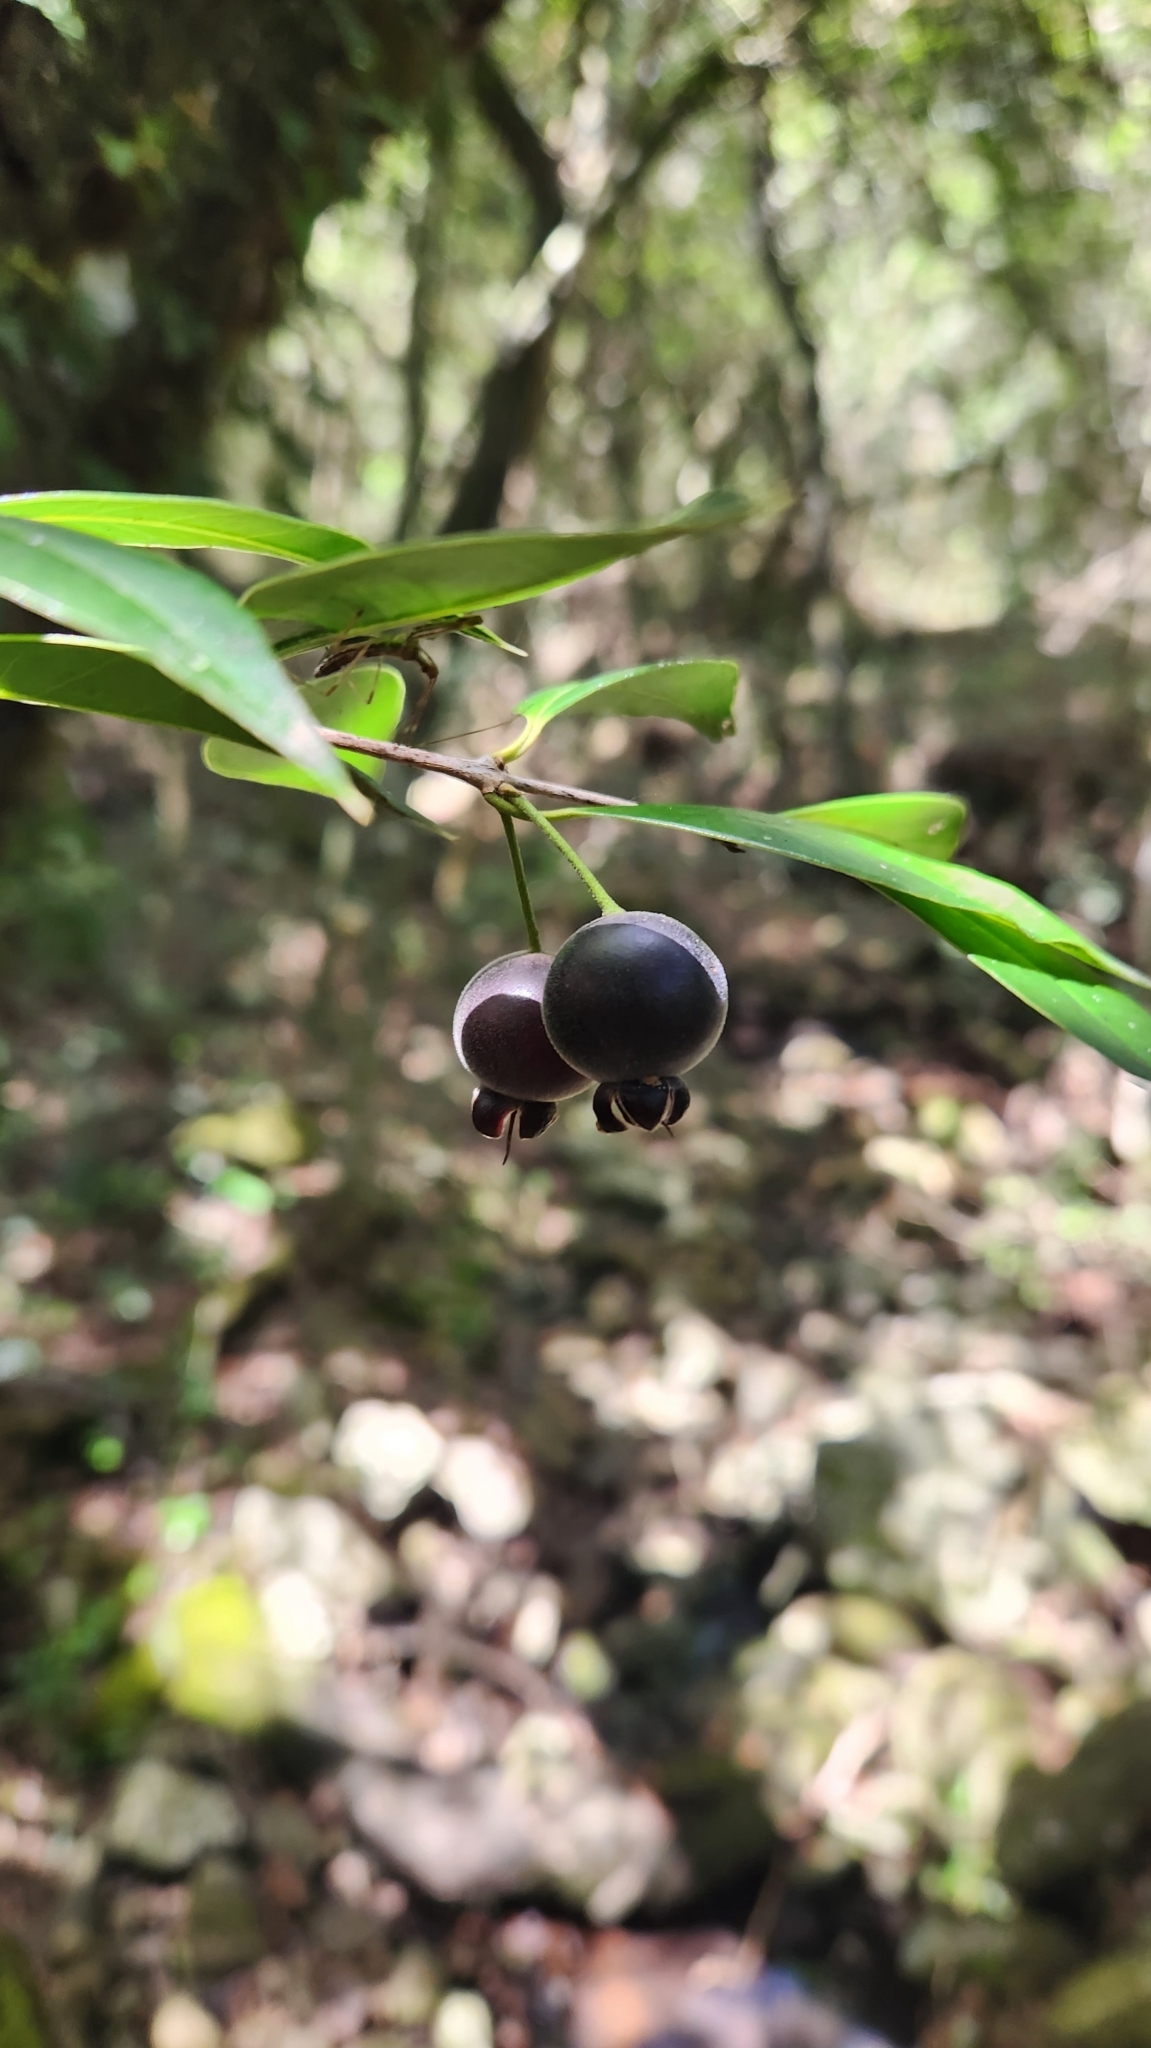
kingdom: Plantae
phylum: Tracheophyta
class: Magnoliopsida
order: Myrtales
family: Myrtaceae
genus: Myrcianthes
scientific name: Myrcianthes pungens
